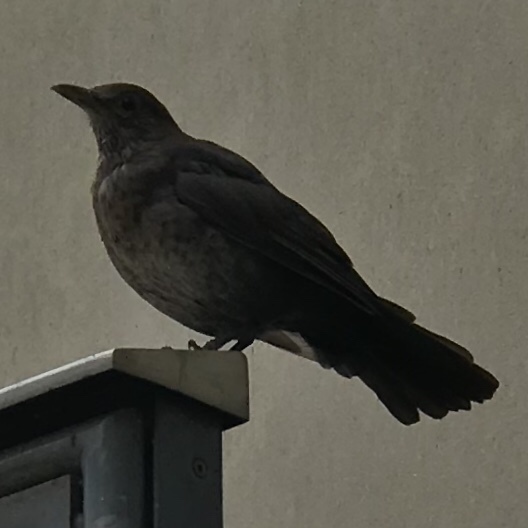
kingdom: Animalia
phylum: Chordata
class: Aves
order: Passeriformes
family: Turdidae
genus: Turdus
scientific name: Turdus merula
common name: Common blackbird
